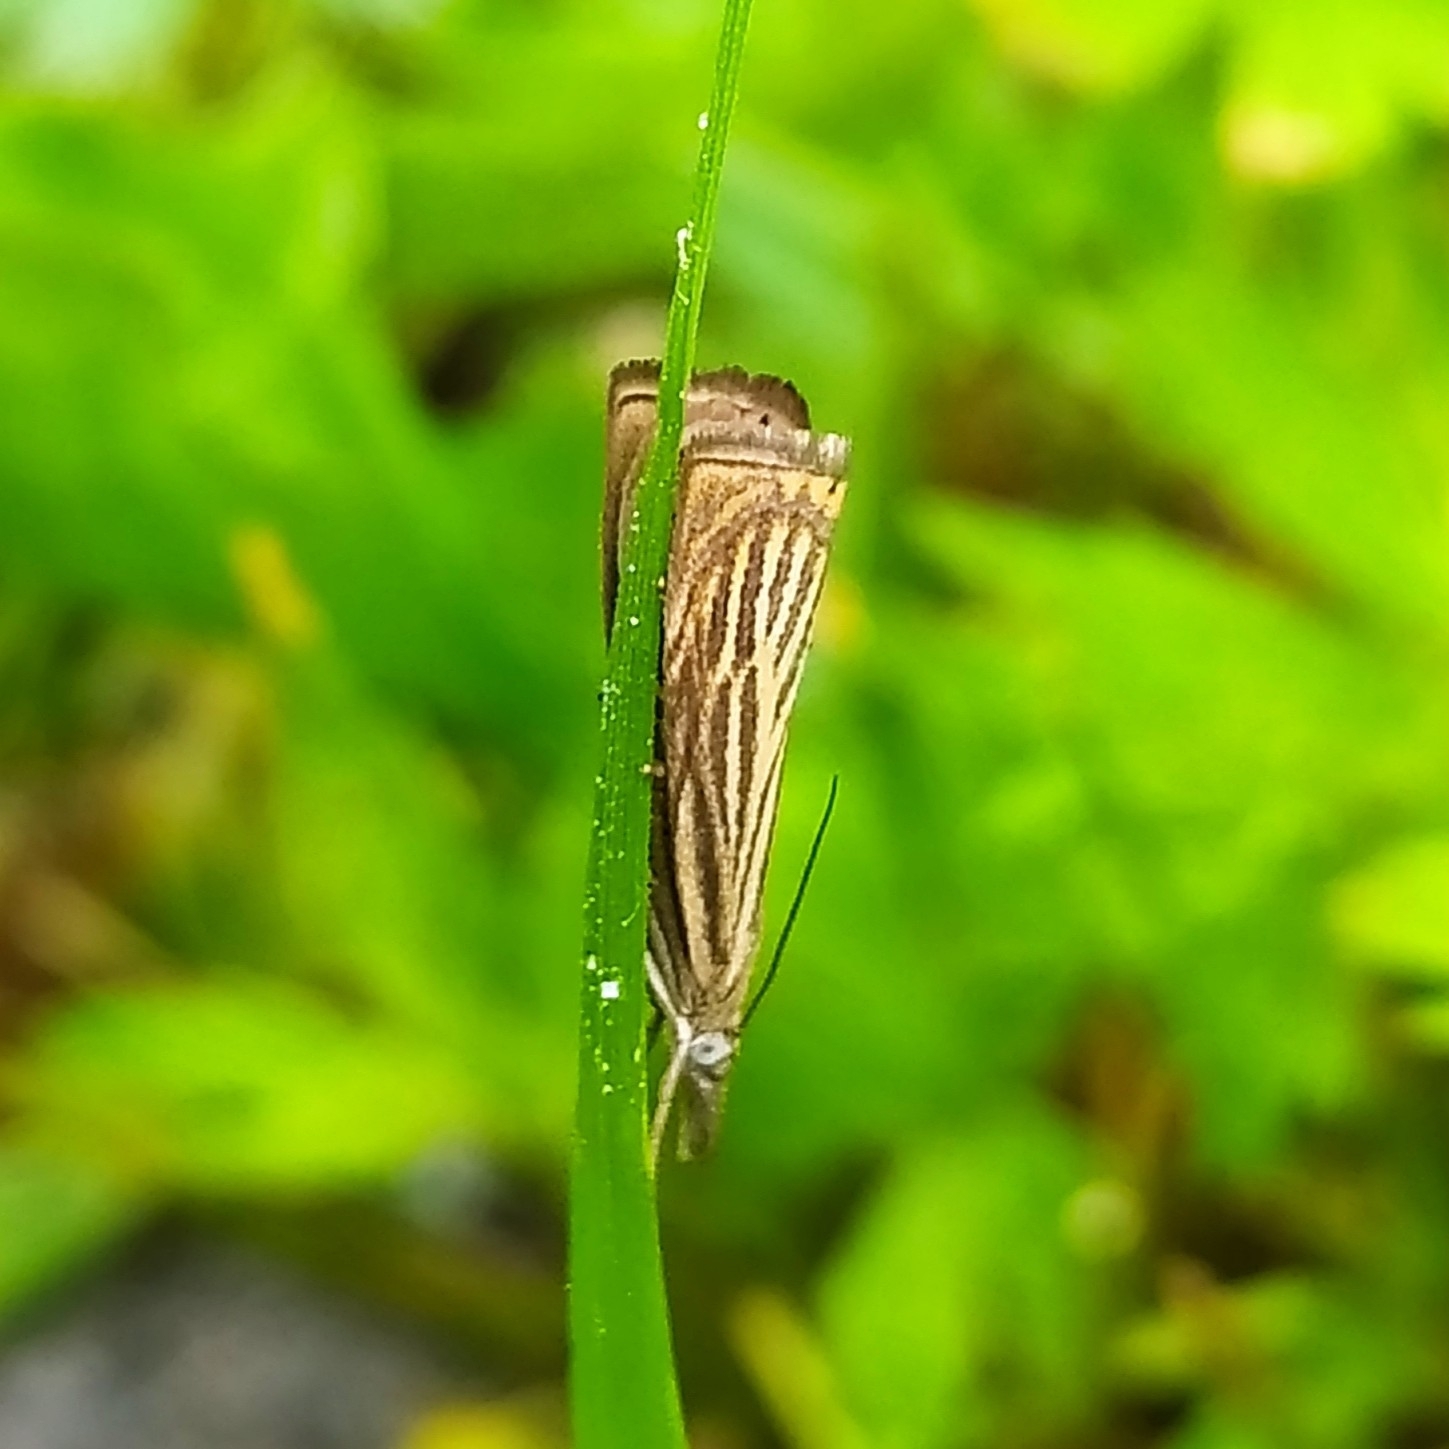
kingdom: Animalia
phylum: Arthropoda
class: Insecta
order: Lepidoptera
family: Crambidae
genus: Chrysoteuchia
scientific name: Chrysoteuchia culmella
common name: Garden grass-veneer
